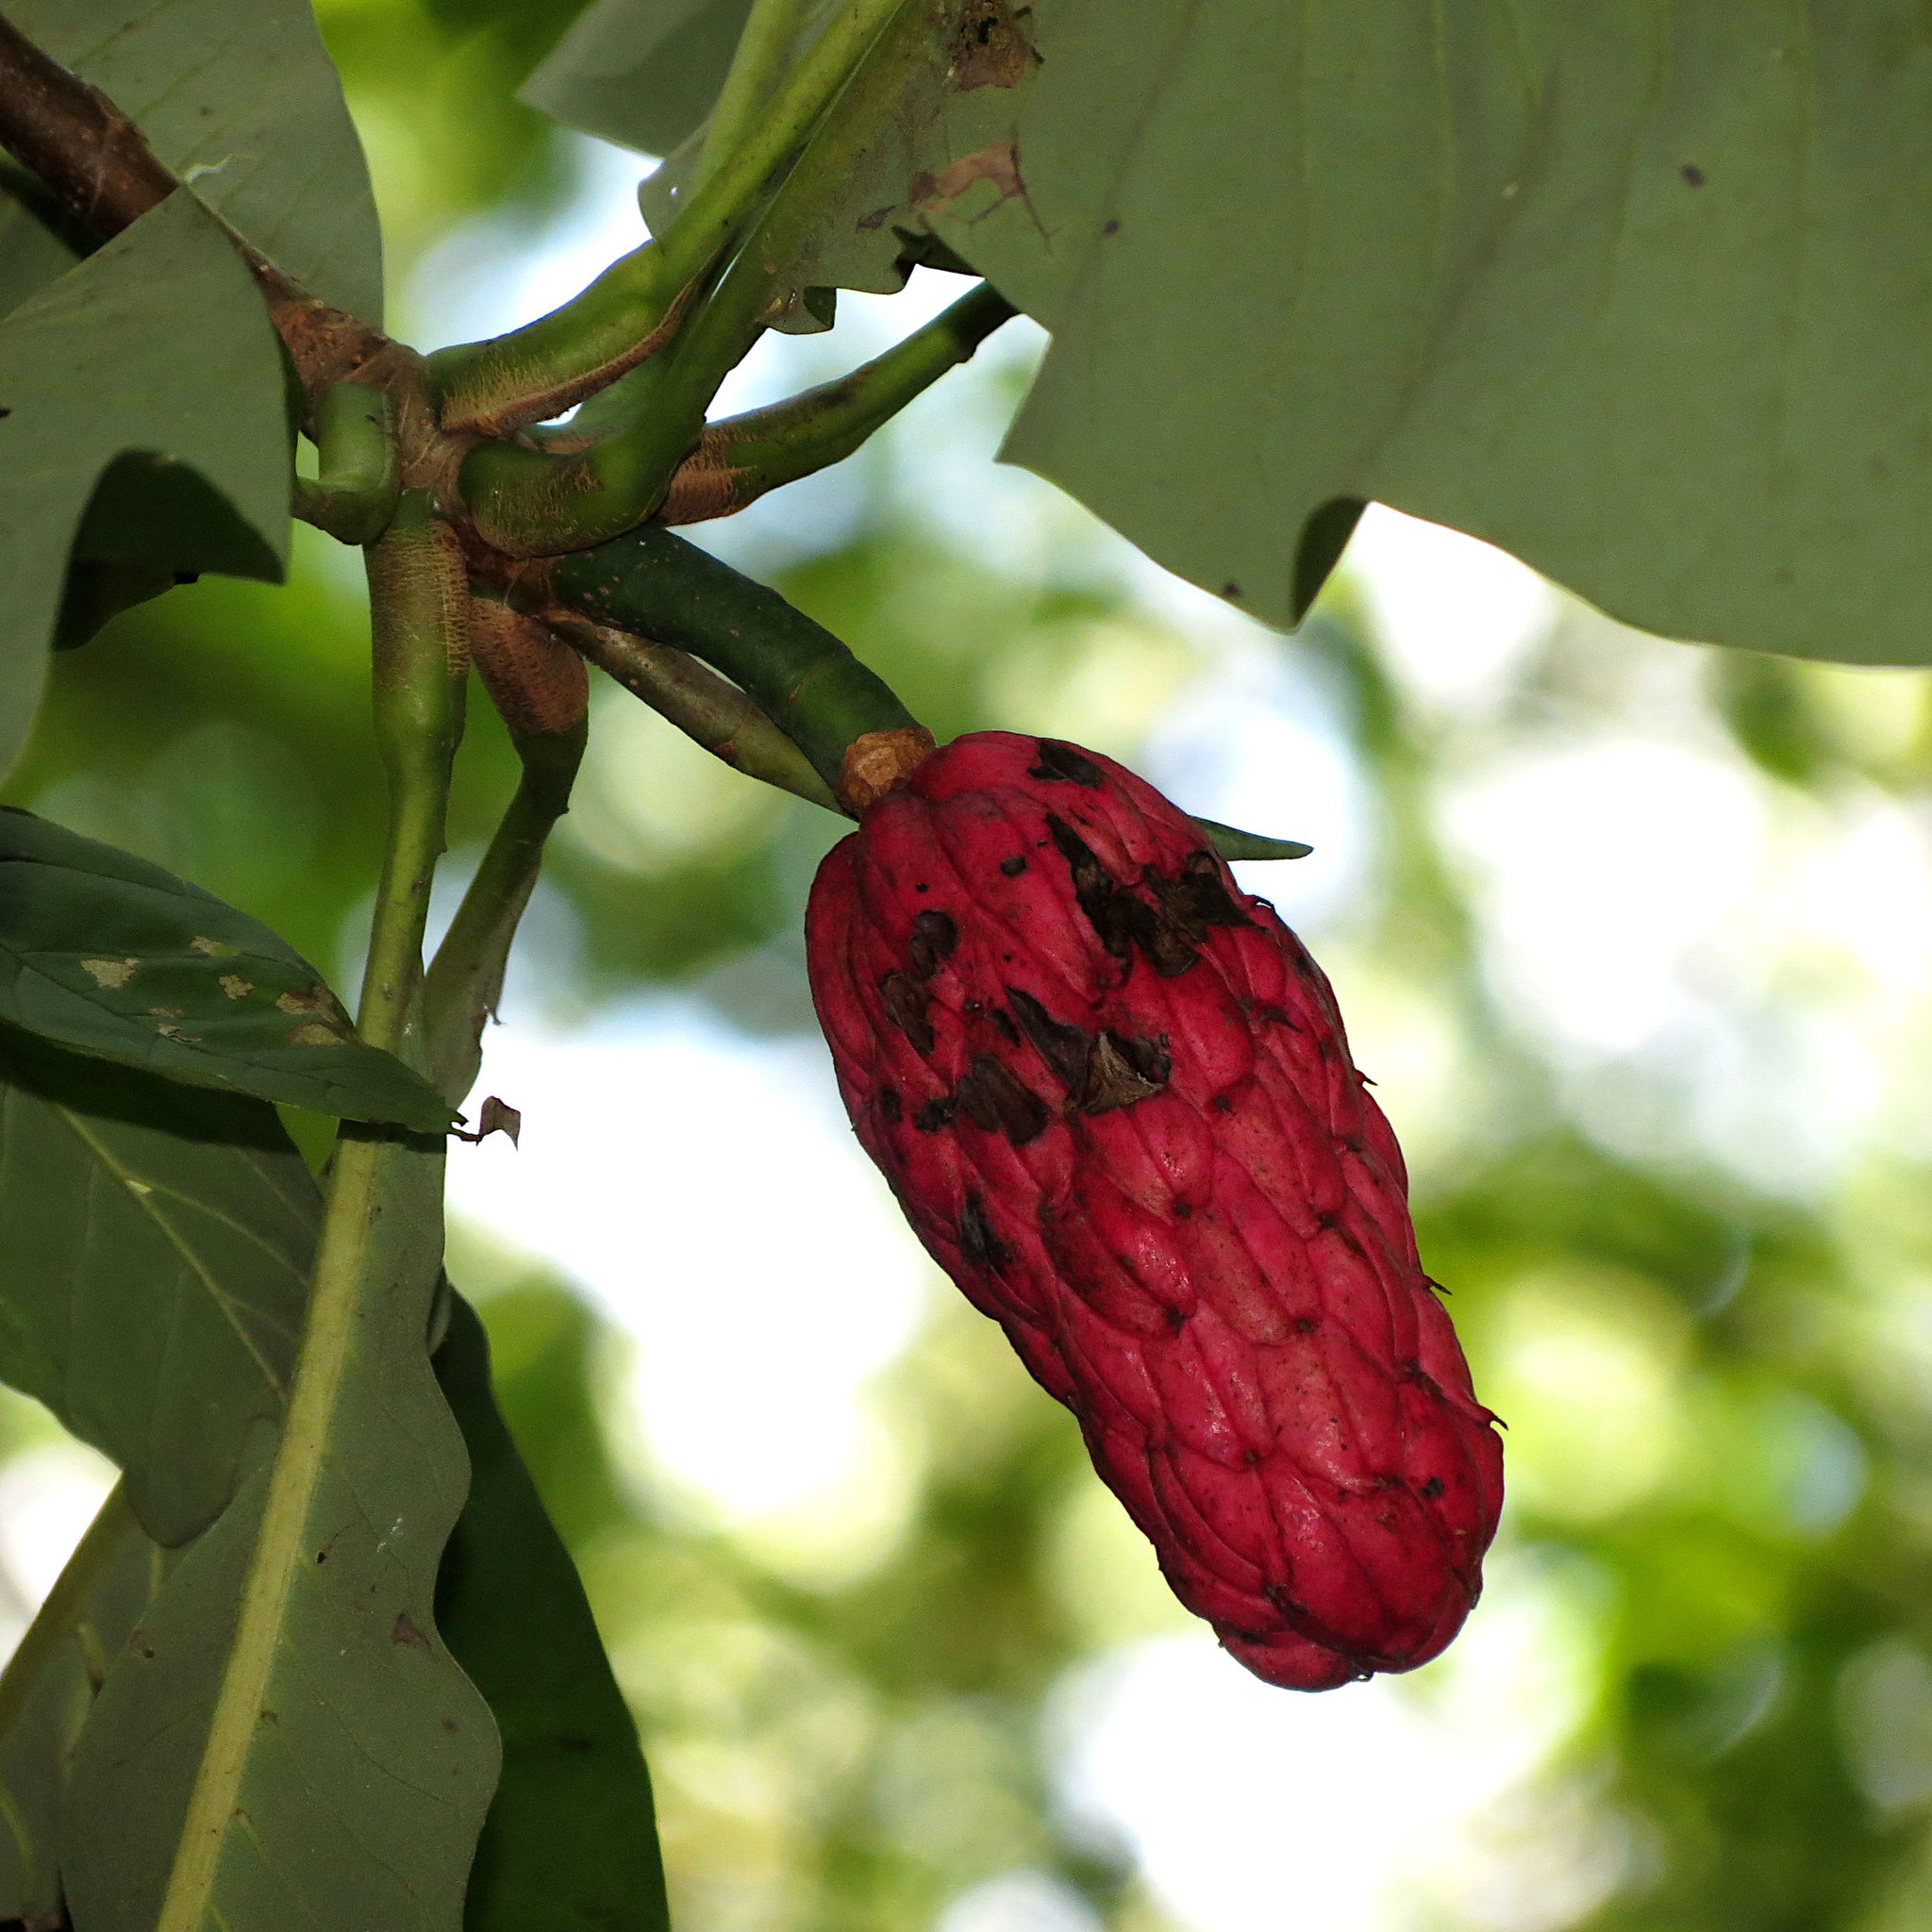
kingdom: Plantae
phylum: Tracheophyta
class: Magnoliopsida
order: Magnoliales
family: Magnoliaceae
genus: Magnolia
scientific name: Magnolia tripetala
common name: Umbrella magnolia
